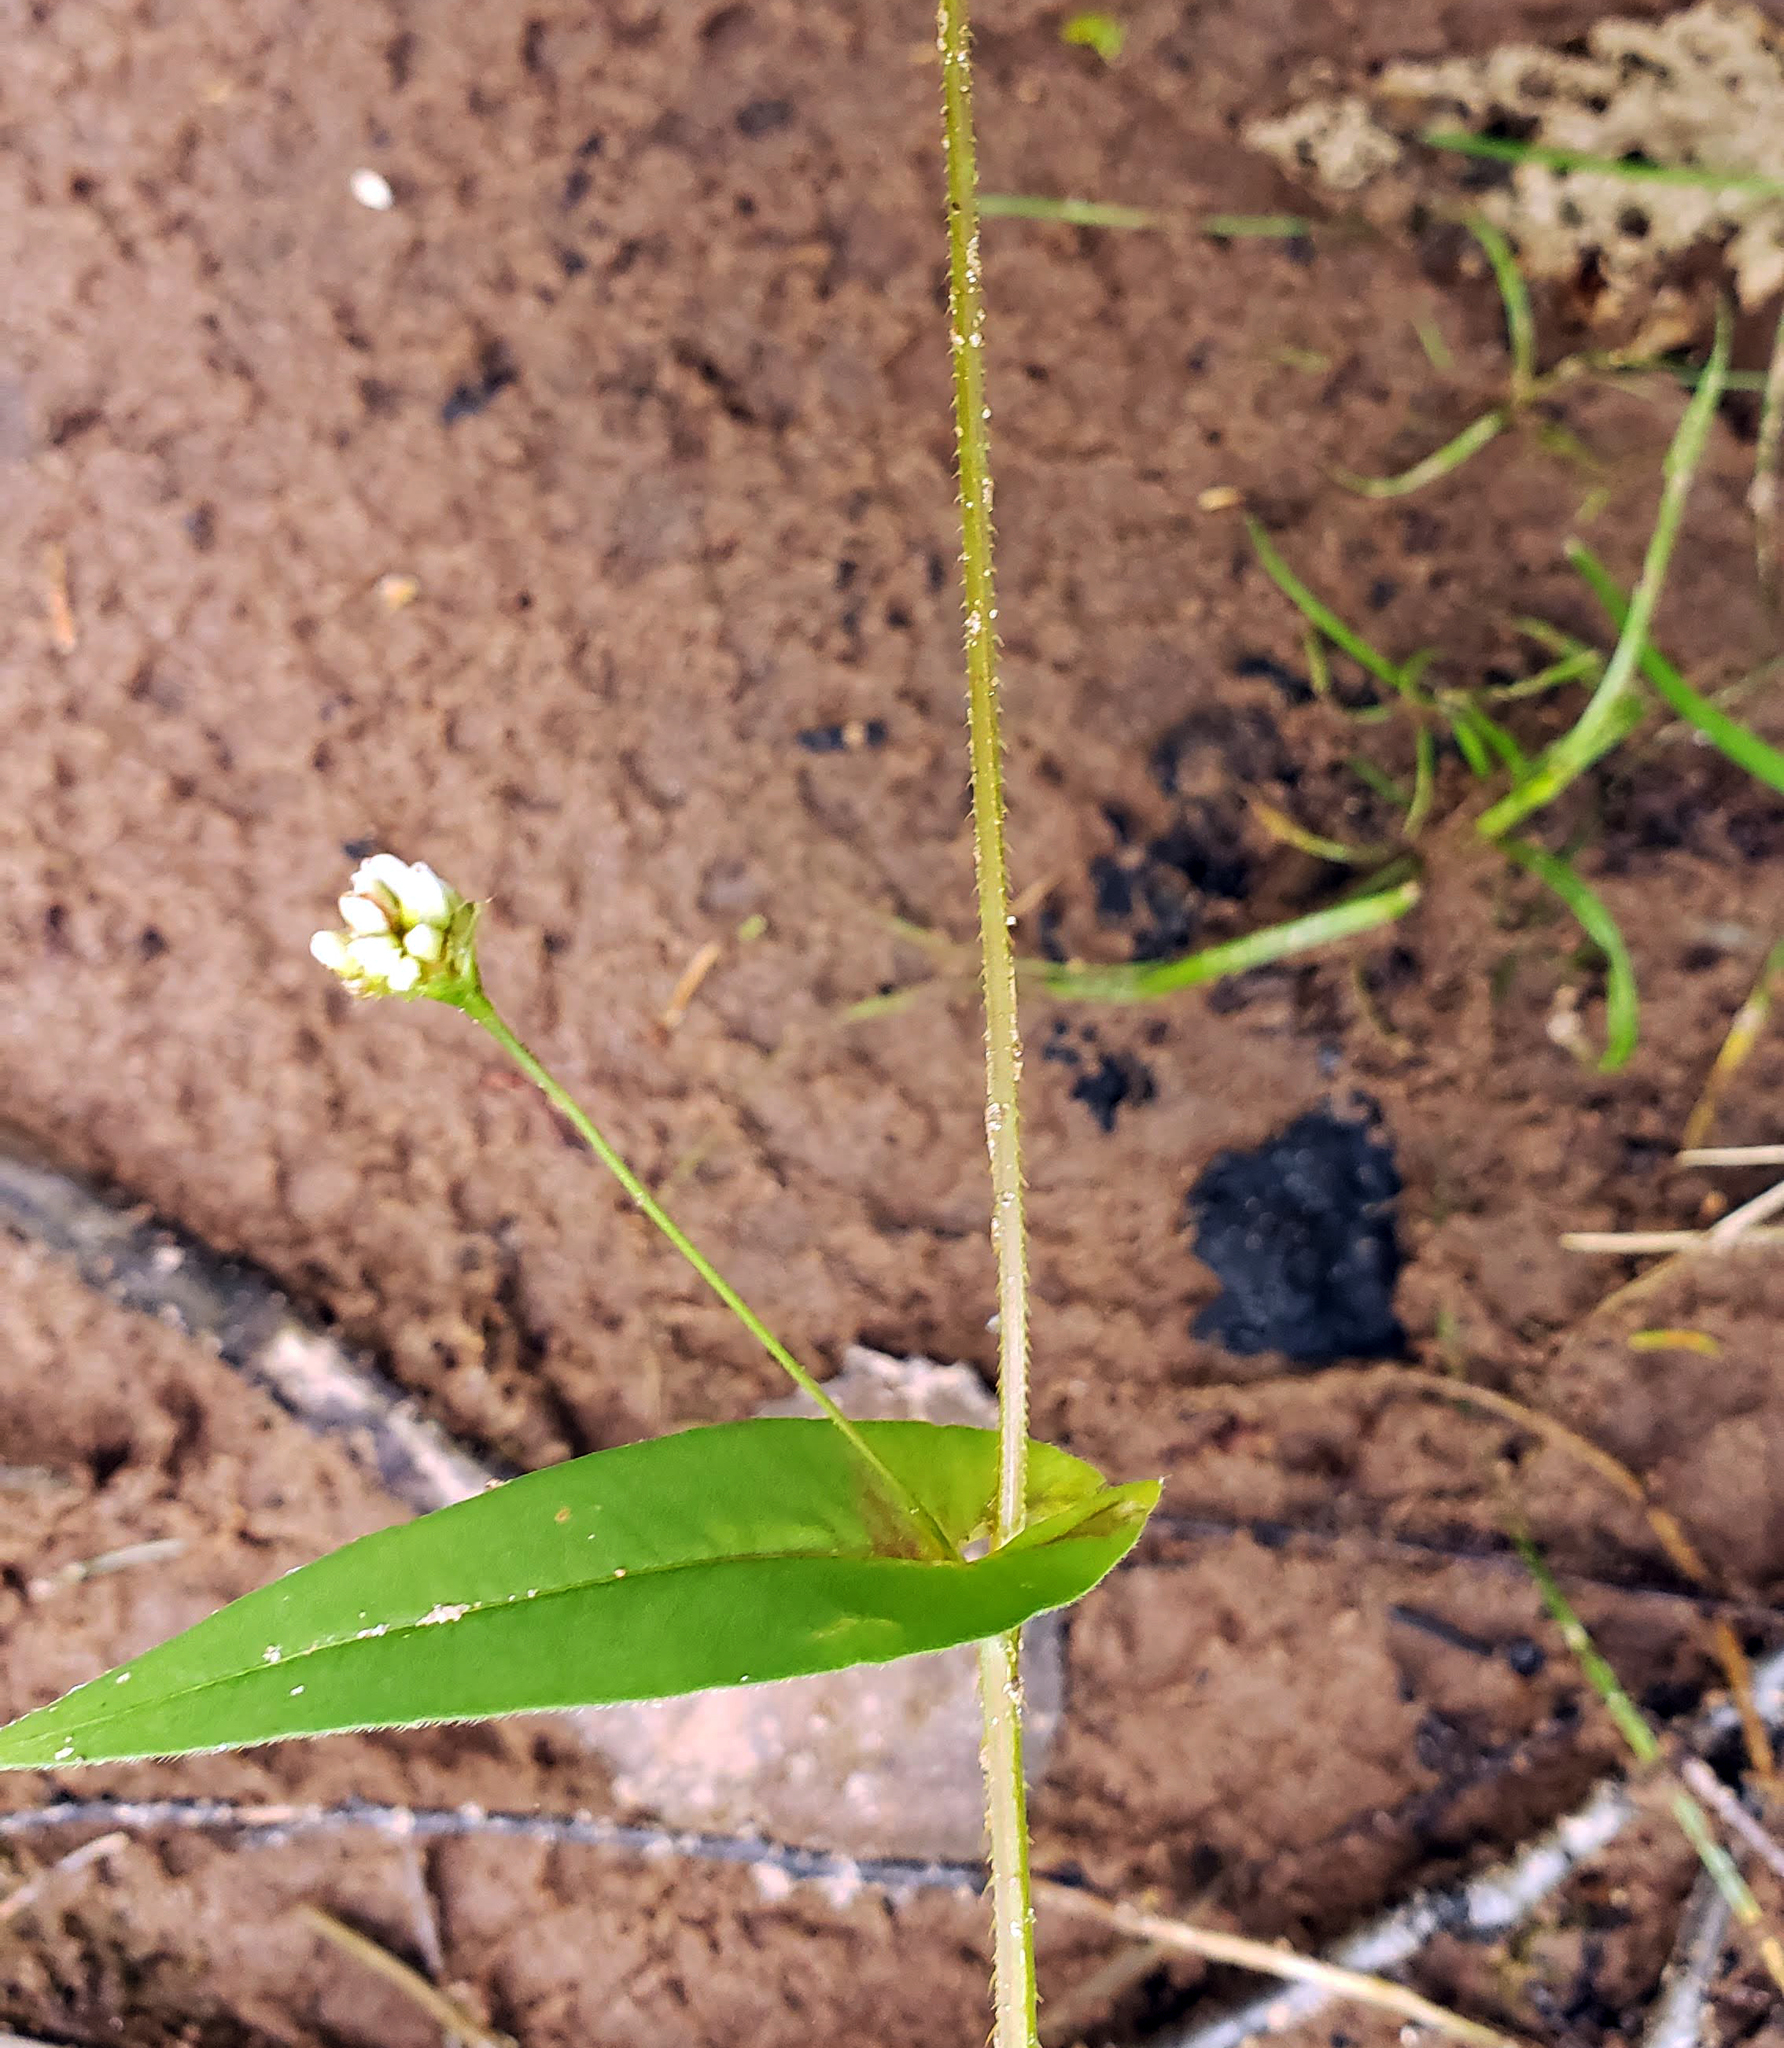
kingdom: Plantae
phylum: Tracheophyta
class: Magnoliopsida
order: Caryophyllales
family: Polygonaceae
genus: Persicaria
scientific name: Persicaria sagittata
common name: American tearthumb
